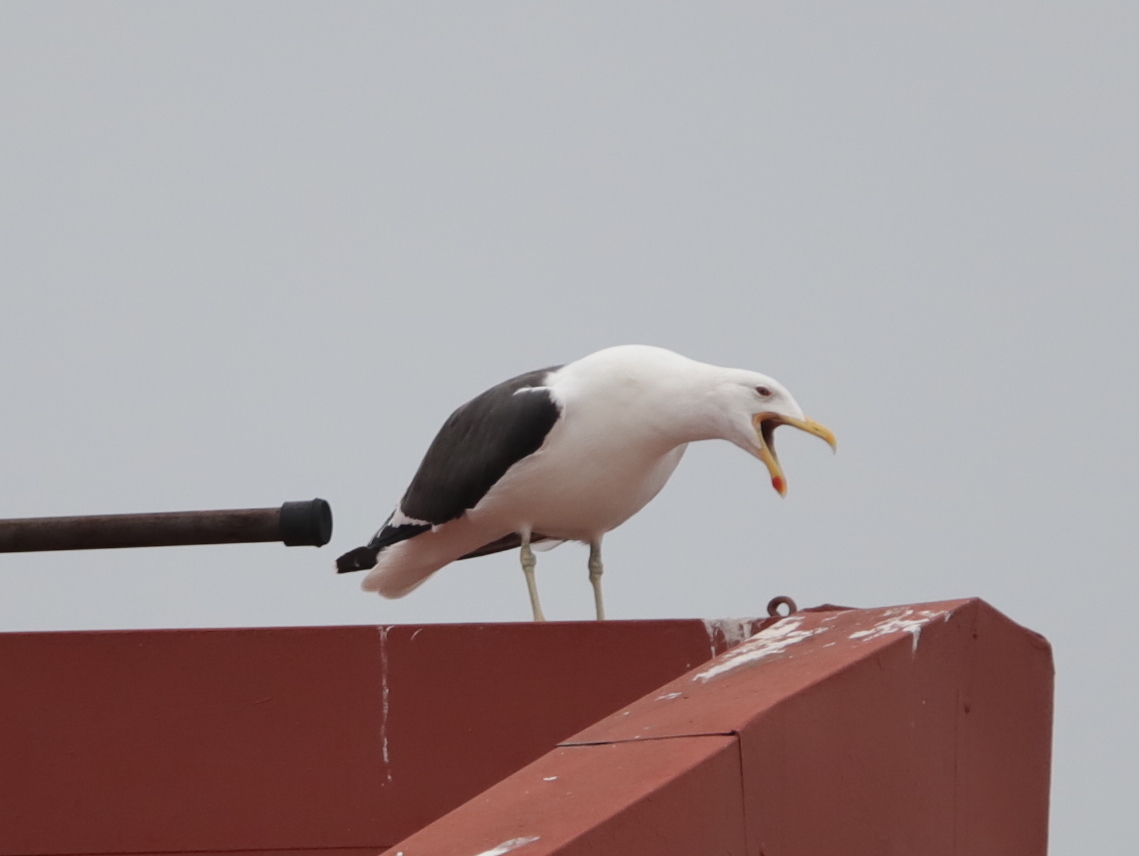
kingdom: Animalia
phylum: Chordata
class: Aves
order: Charadriiformes
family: Laridae
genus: Larus
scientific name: Larus dominicanus
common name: Kelp gull
